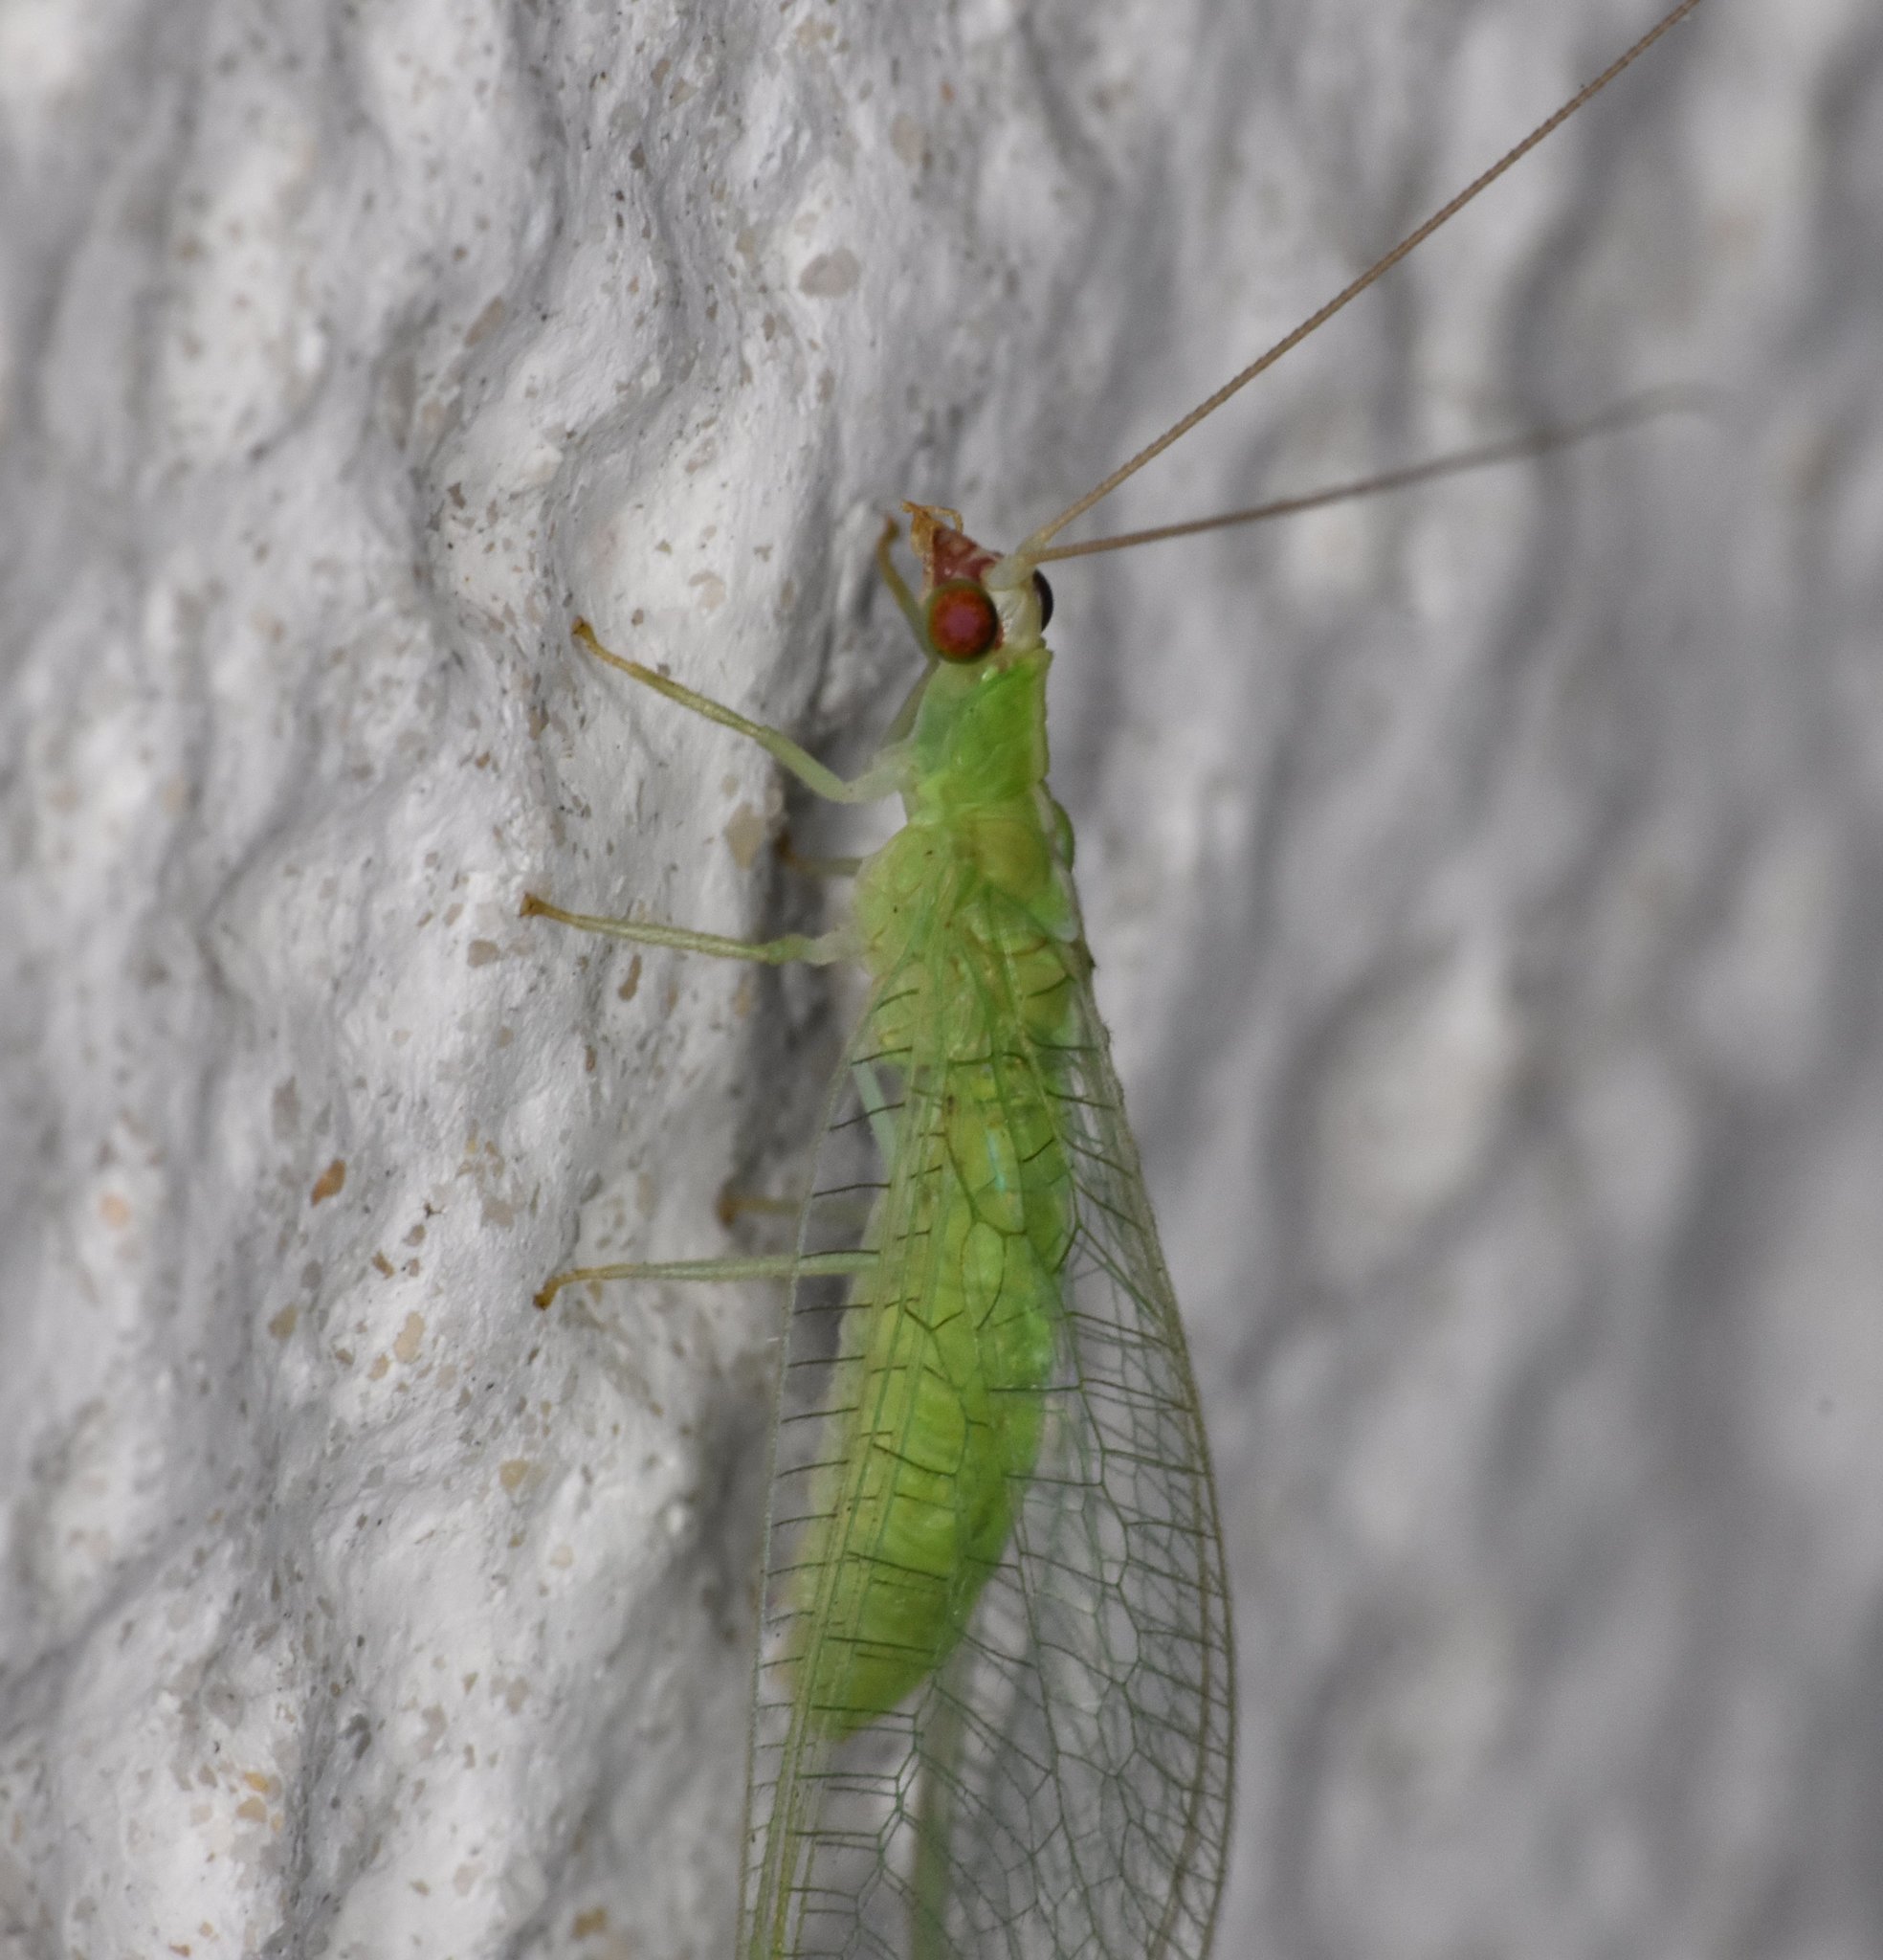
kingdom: Animalia
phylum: Arthropoda
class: Insecta
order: Neuroptera
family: Chrysopidae
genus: Chrysopodes
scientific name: Chrysopodes collaris
